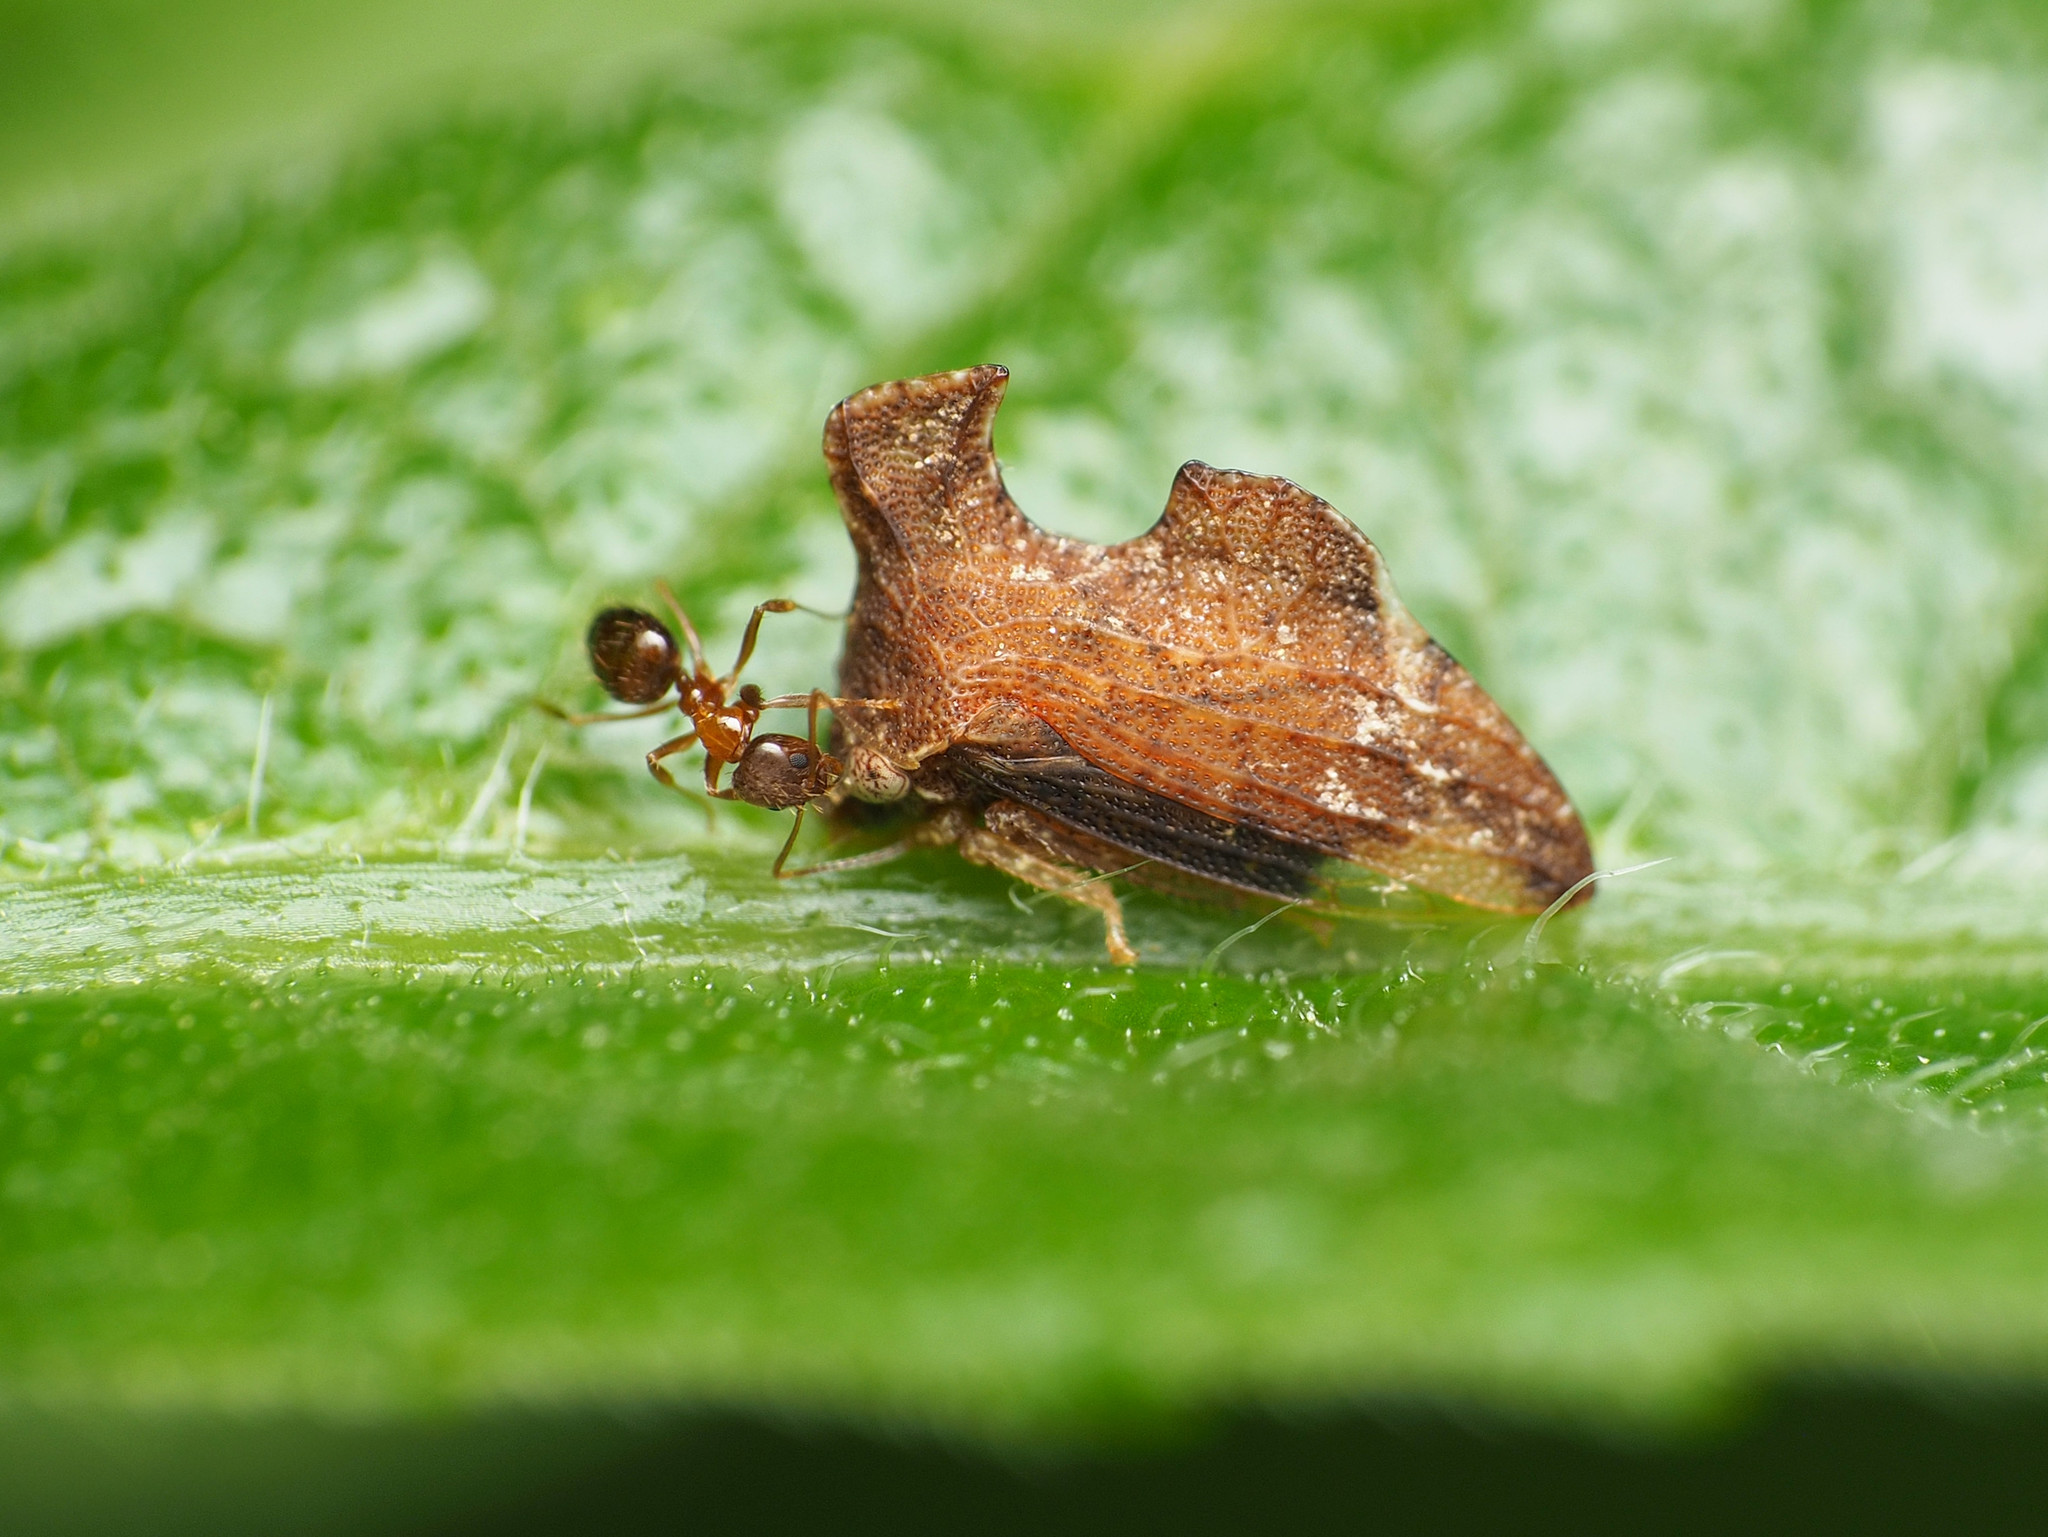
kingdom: Animalia
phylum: Arthropoda
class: Insecta
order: Hemiptera
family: Membracidae
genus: Entylia
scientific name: Entylia carinata
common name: Keeled treehopper
